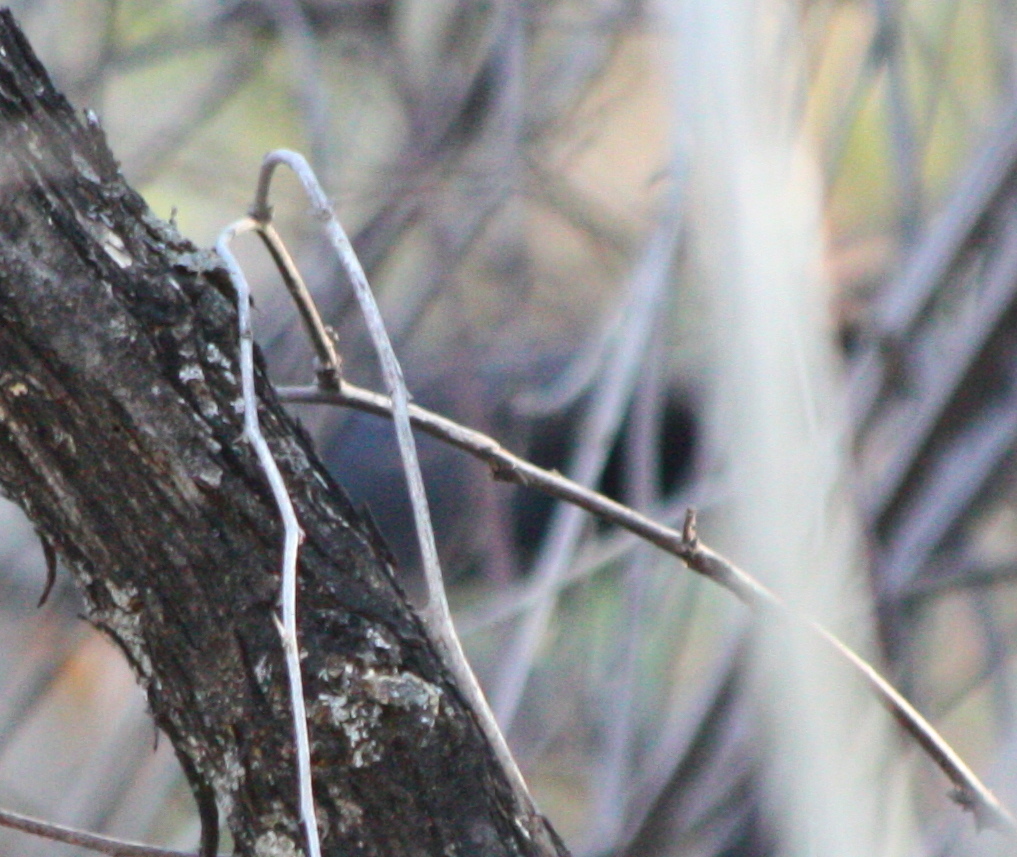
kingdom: Animalia
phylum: Chordata
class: Aves
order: Passeriformes
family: Mimidae
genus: Melanotis
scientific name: Melanotis caerulescens
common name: Blue mockingbird
